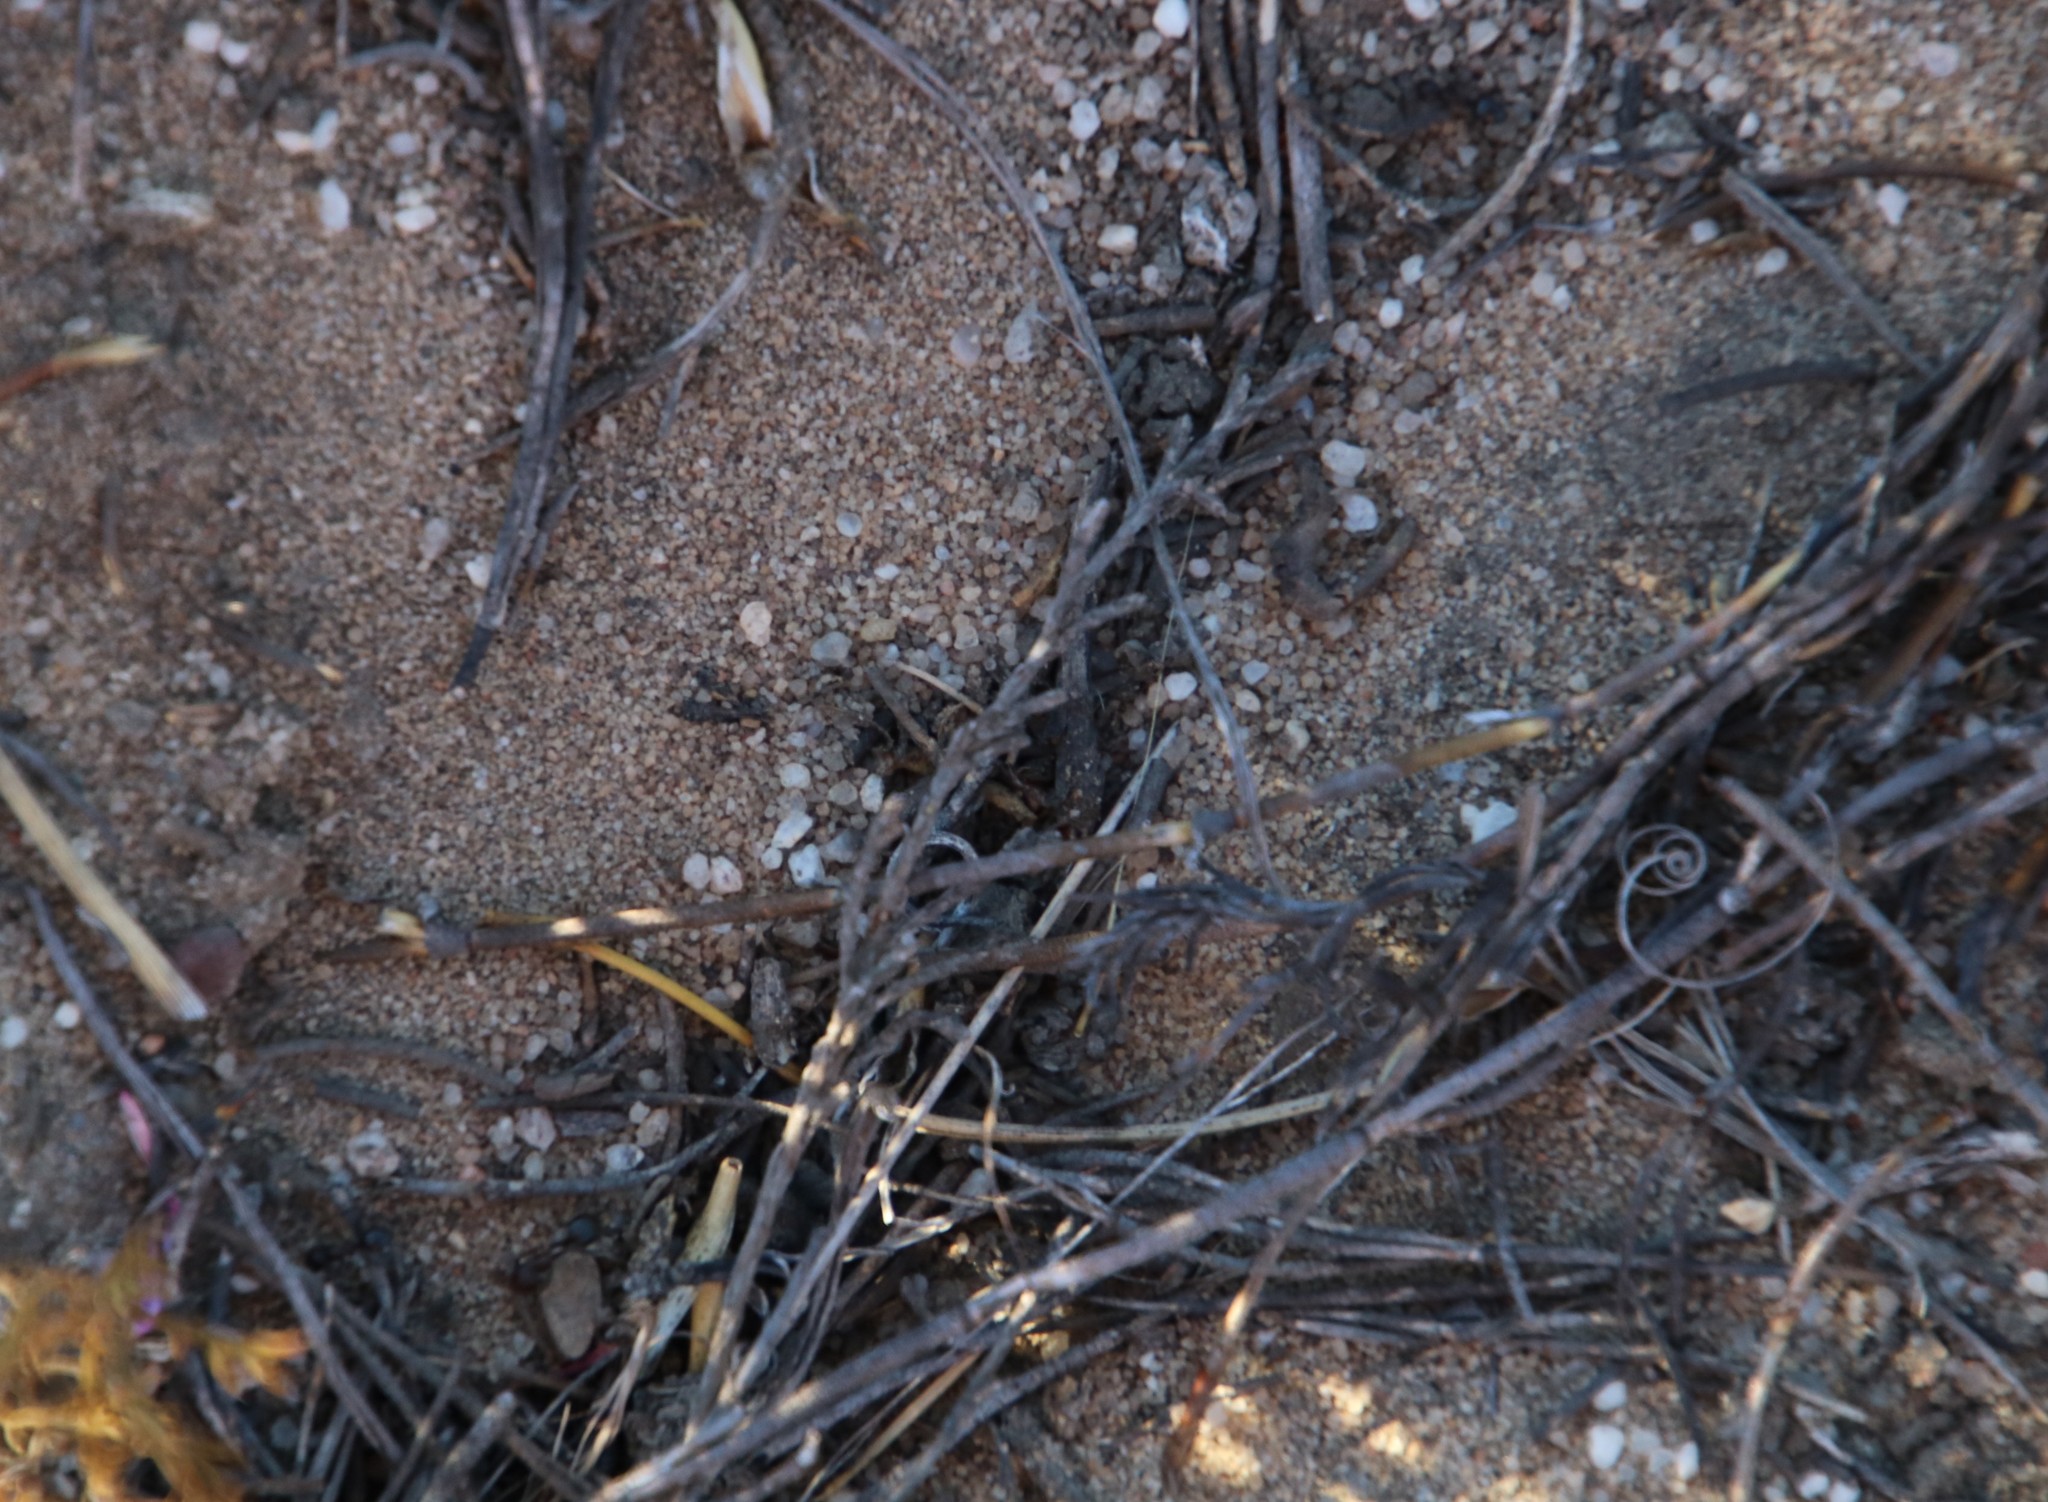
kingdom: Animalia
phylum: Arthropoda
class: Insecta
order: Hymenoptera
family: Formicidae
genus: Anoplolepis
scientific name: Anoplolepis steingroeveri
